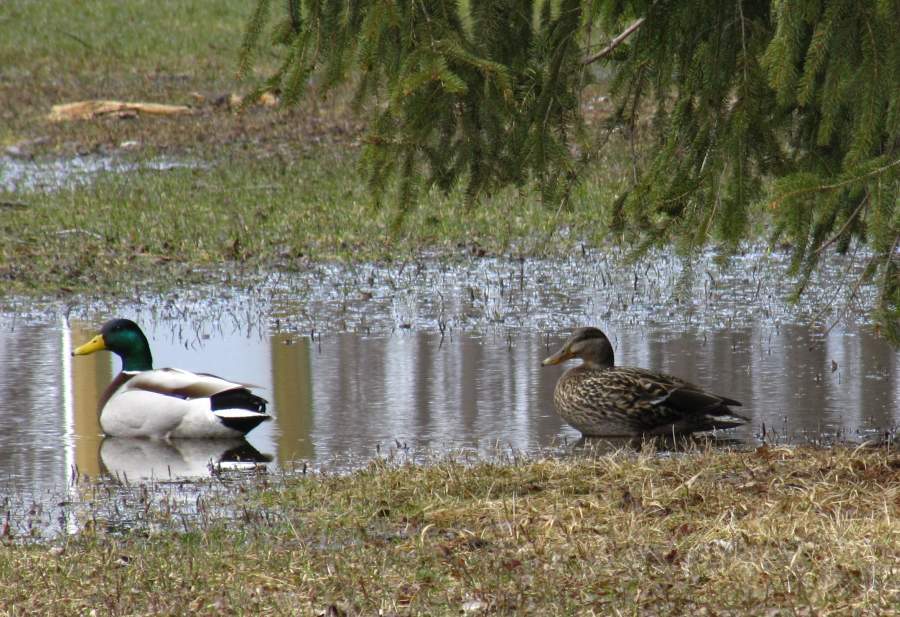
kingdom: Animalia
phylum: Chordata
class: Aves
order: Anseriformes
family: Anatidae
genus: Anas
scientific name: Anas platyrhynchos
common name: Mallard
